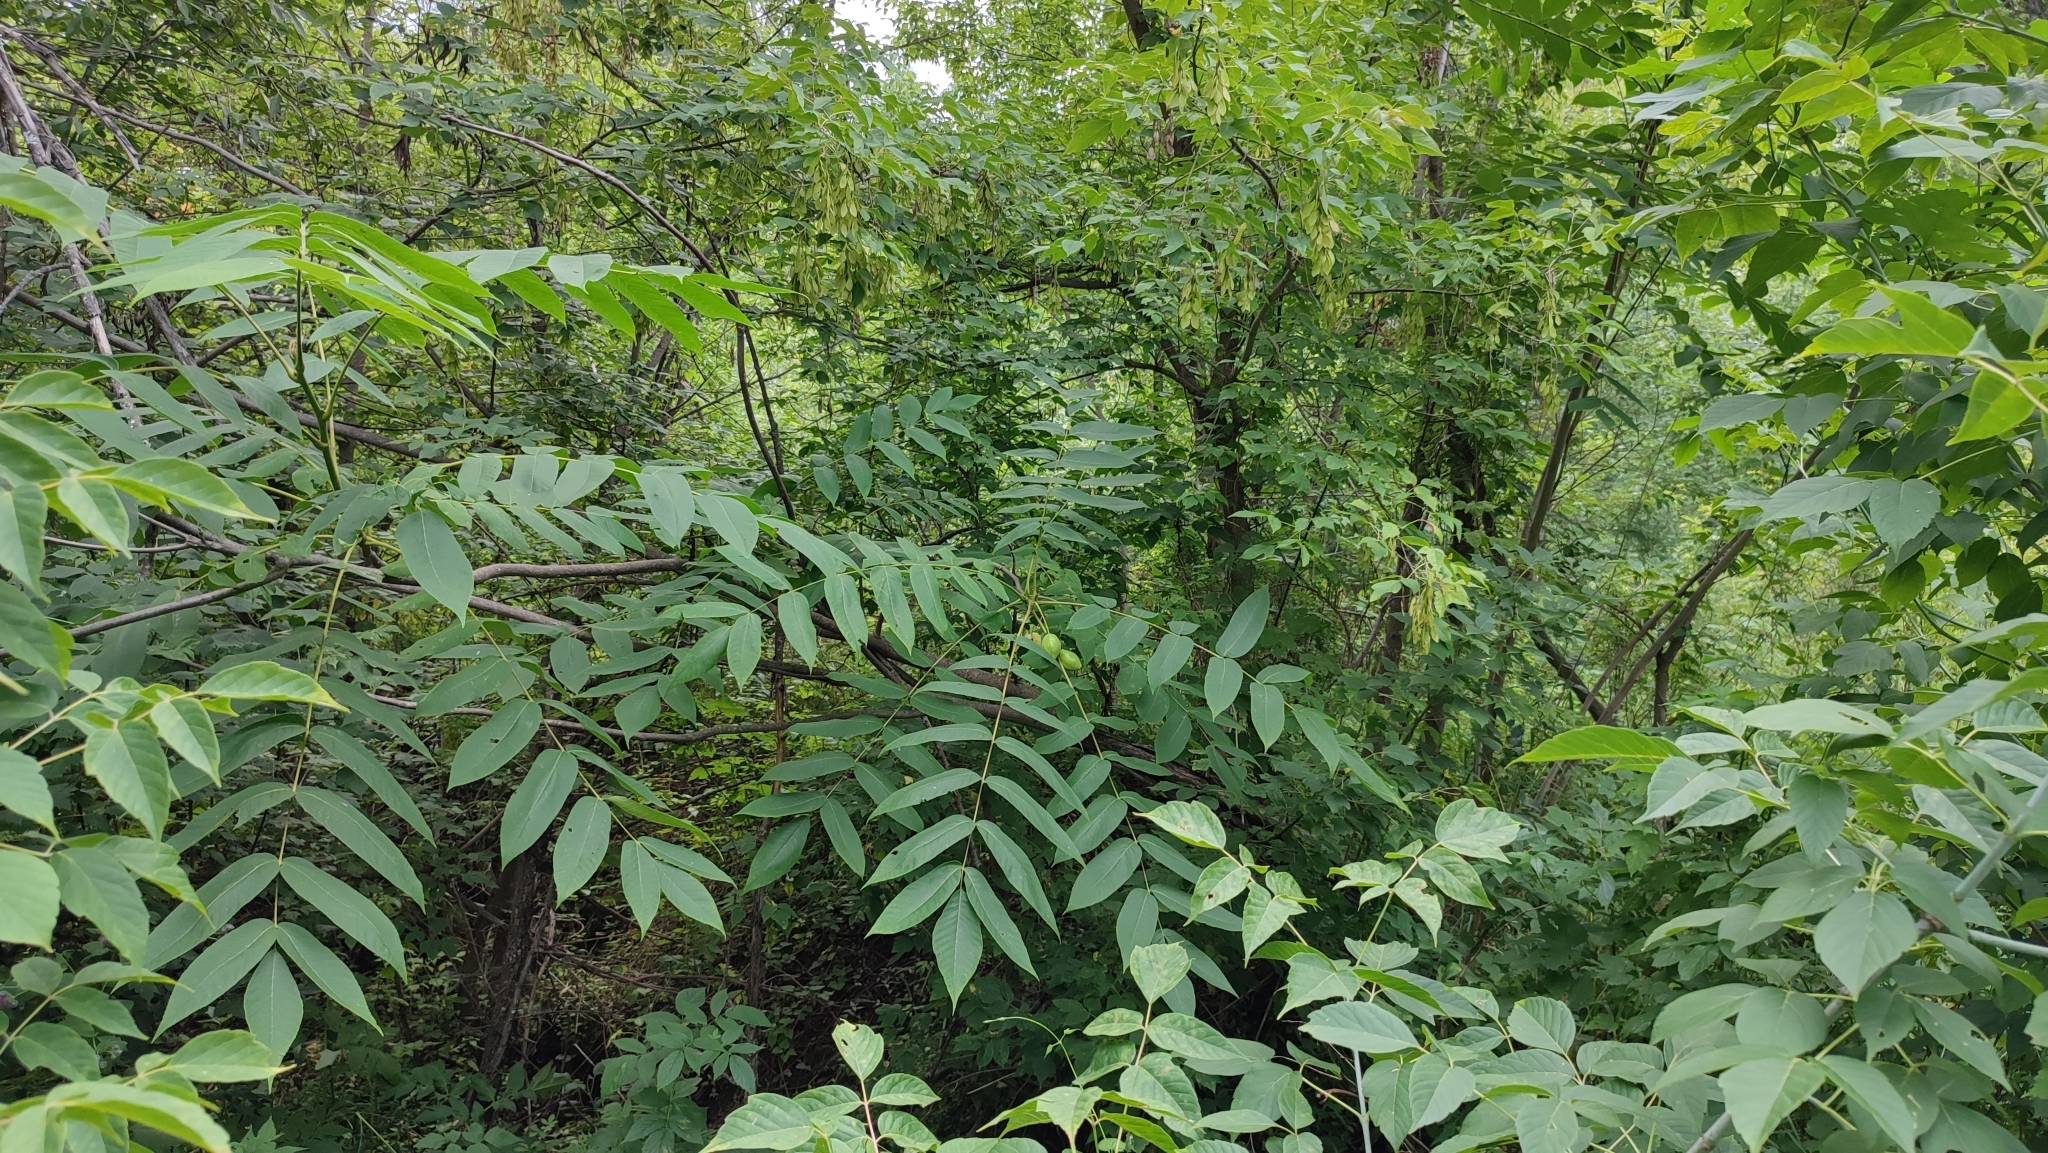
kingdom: Plantae
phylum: Tracheophyta
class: Magnoliopsida
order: Fagales
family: Juglandaceae
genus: Juglans
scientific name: Juglans mandshurica
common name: Manchurian walnut
